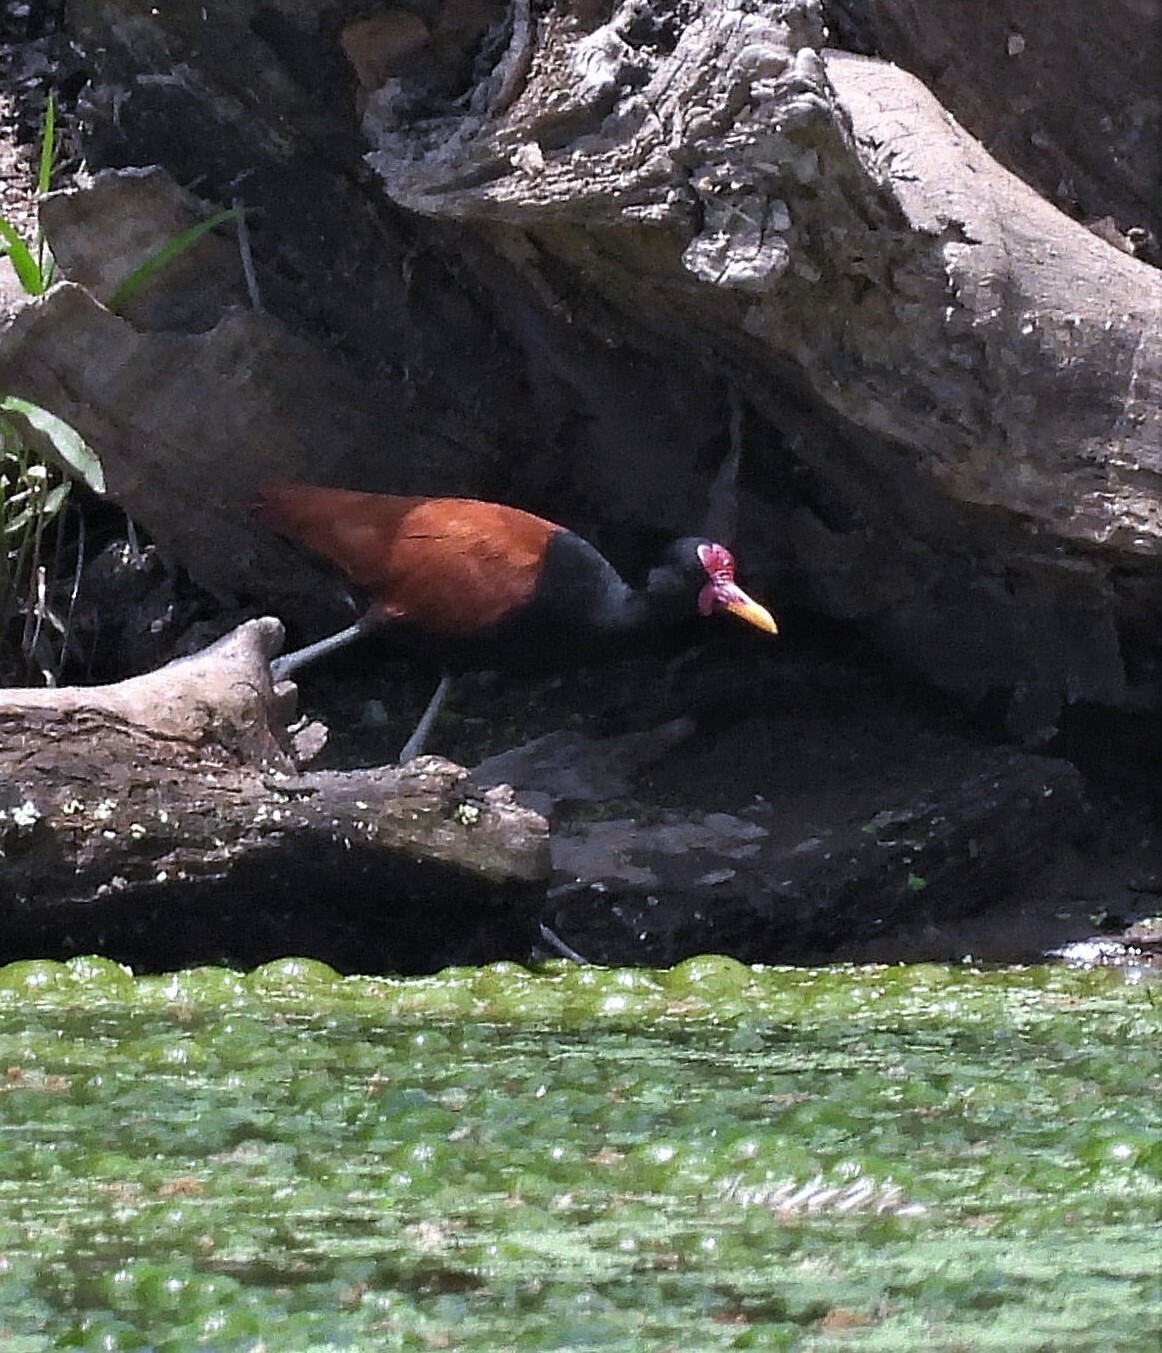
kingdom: Animalia
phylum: Chordata
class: Aves
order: Charadriiformes
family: Jacanidae
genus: Jacana
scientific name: Jacana jacana
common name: Wattled jacana
